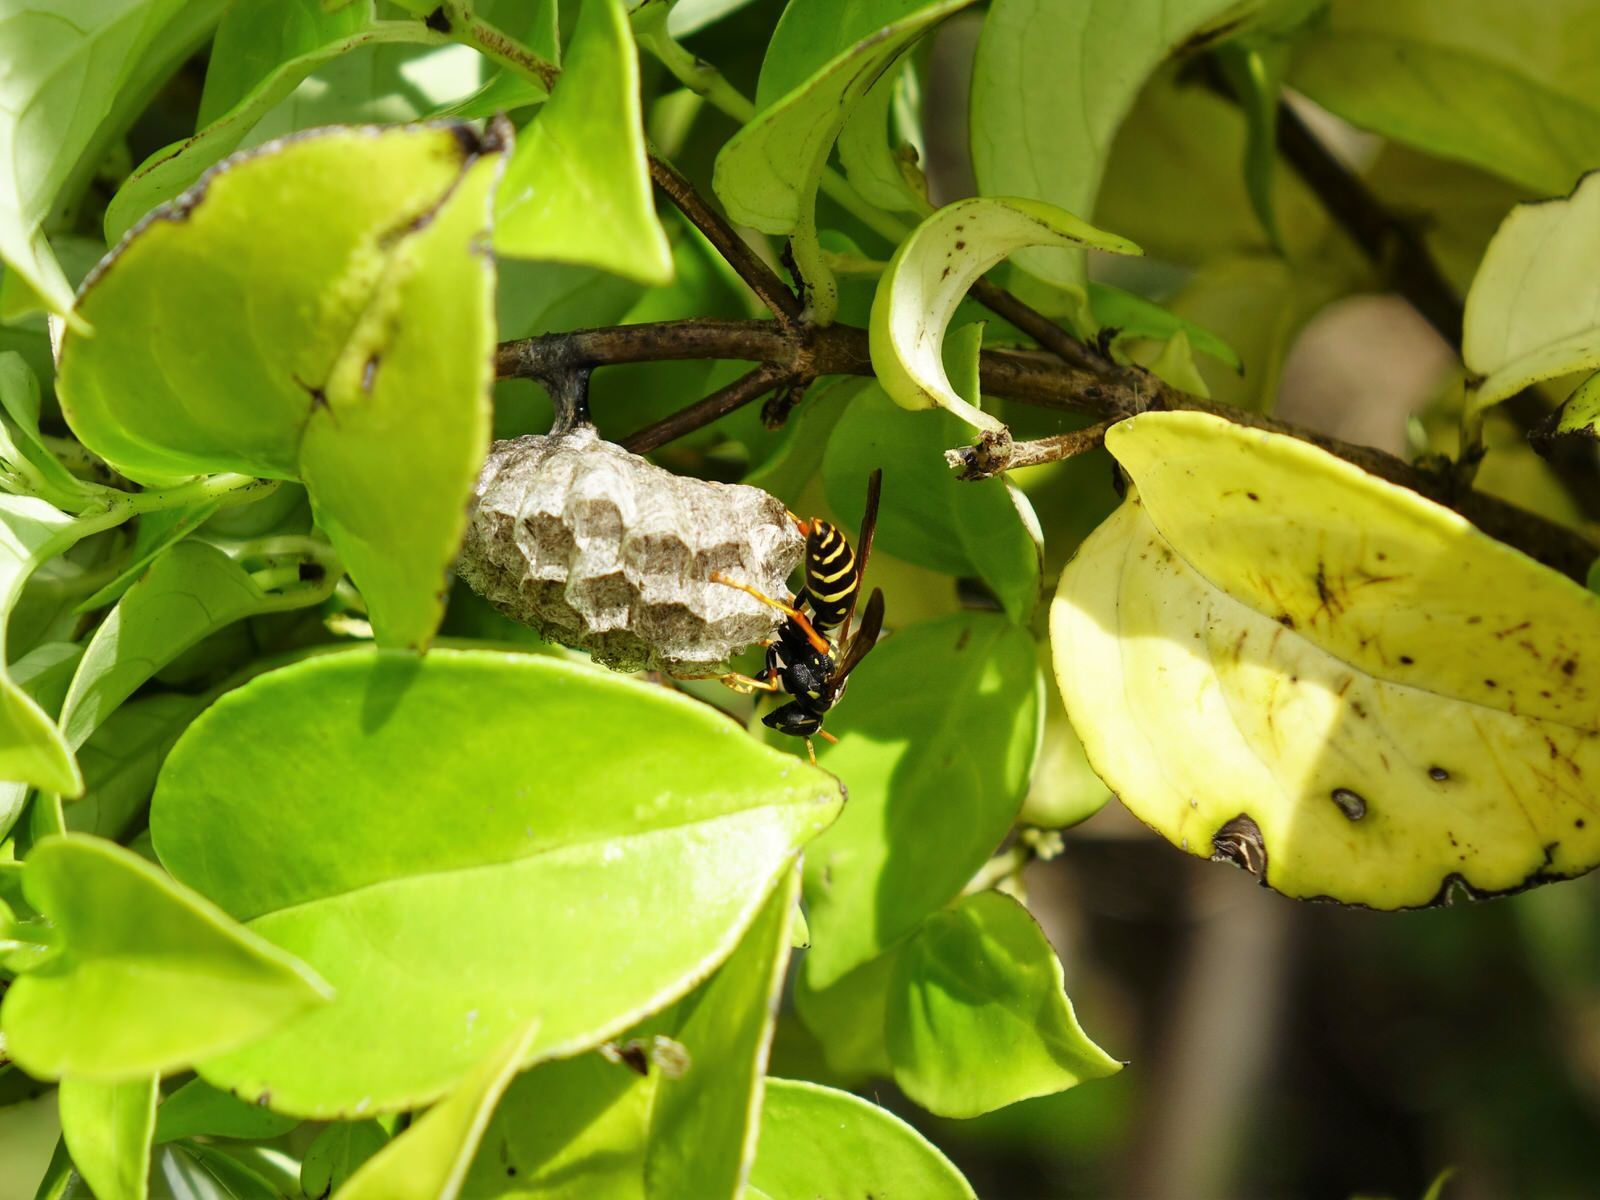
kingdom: Animalia
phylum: Arthropoda
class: Insecta
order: Hymenoptera
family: Eumenidae
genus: Polistes
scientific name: Polistes chinensis
